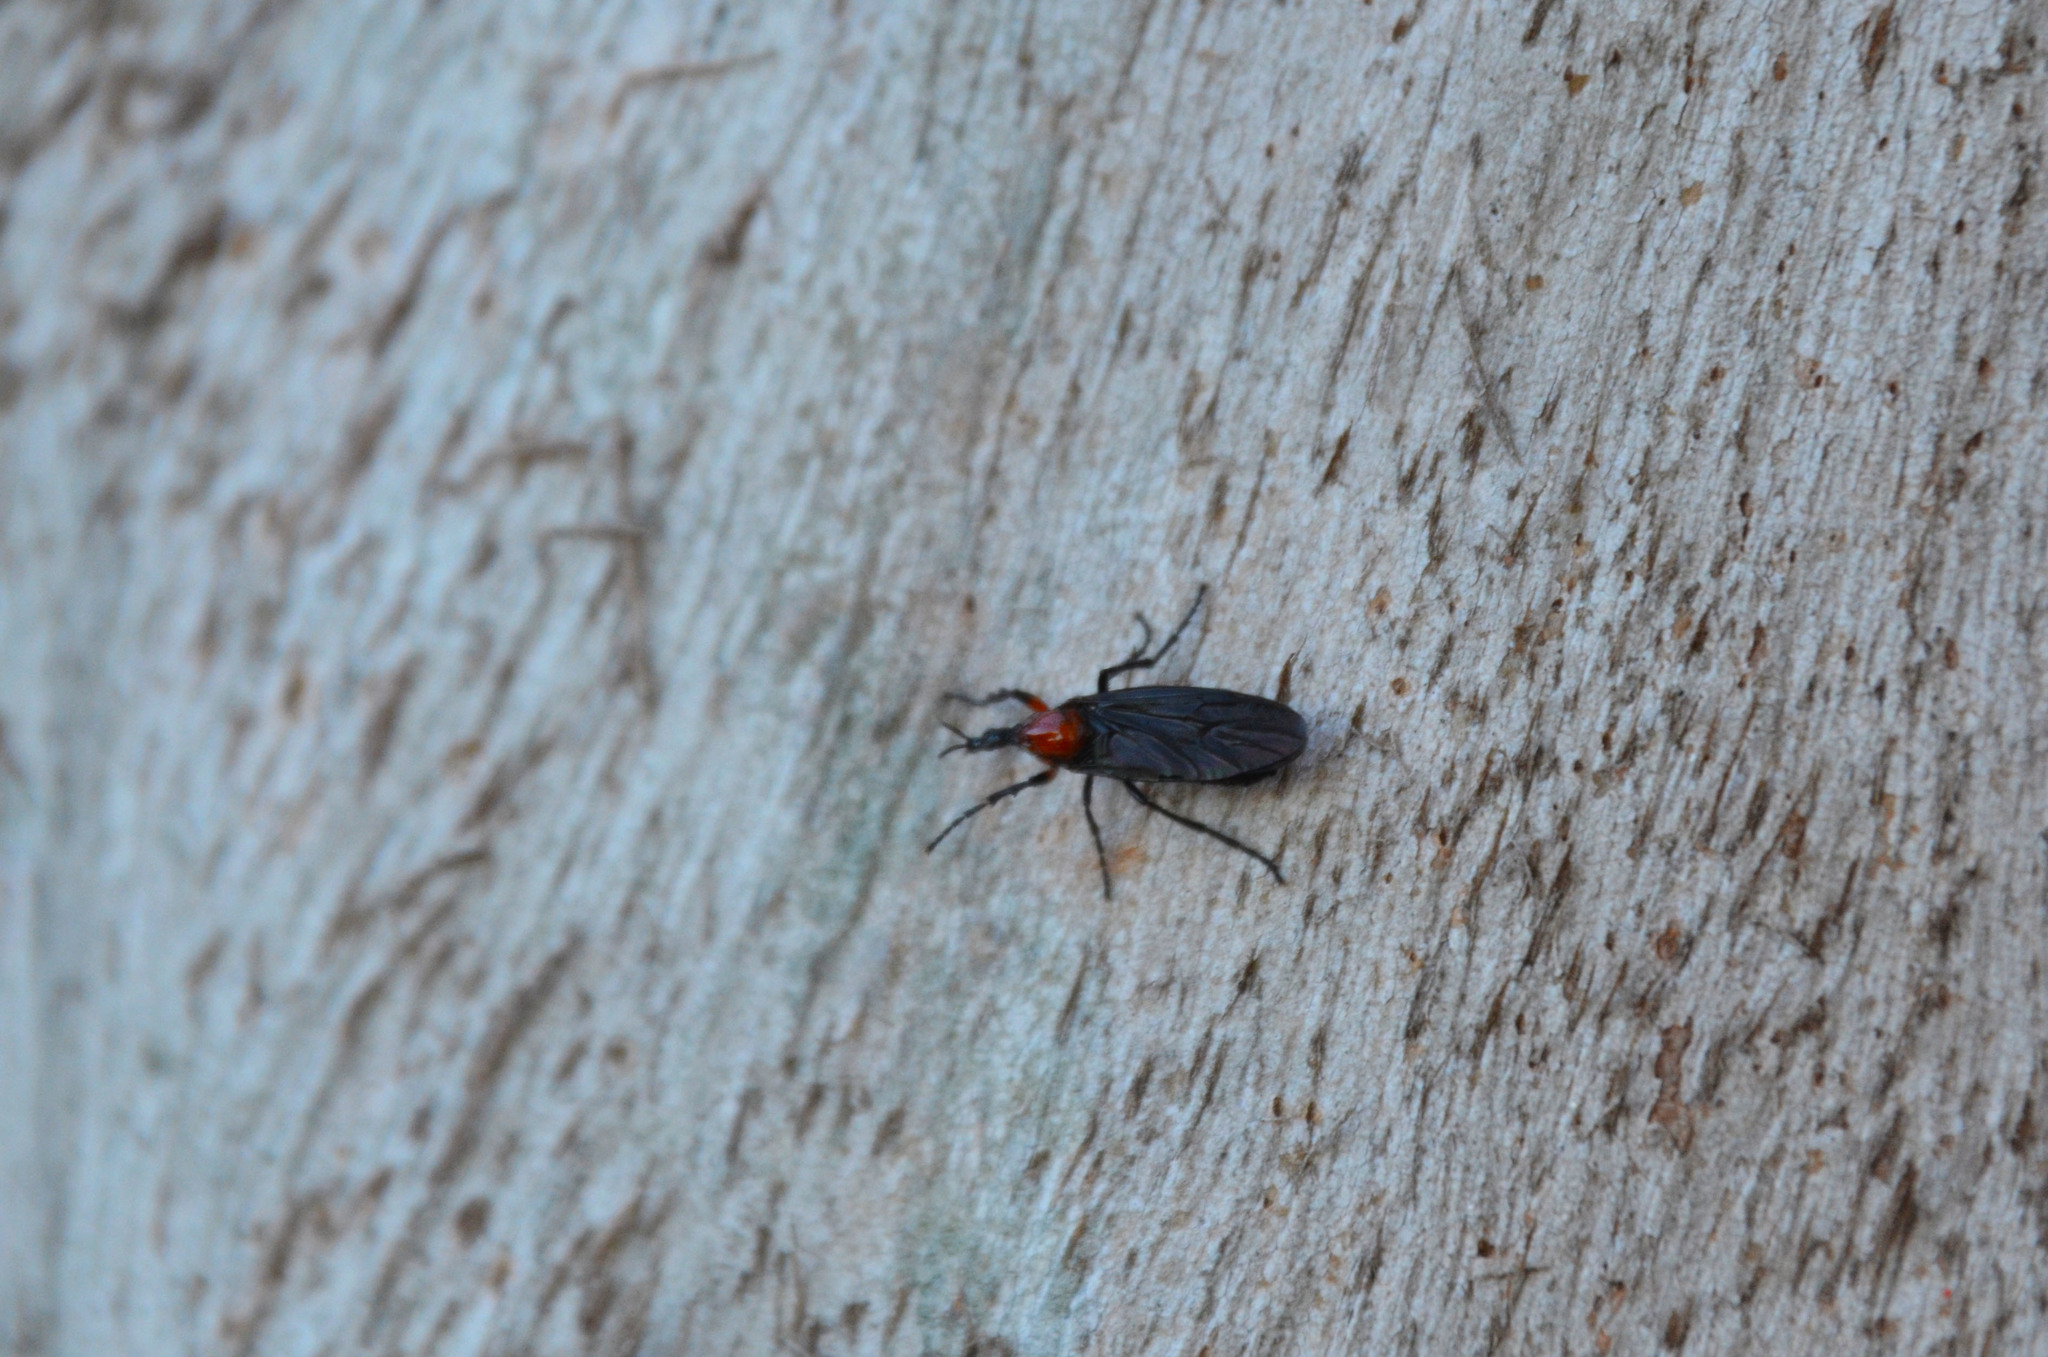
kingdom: Animalia
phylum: Arthropoda
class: Insecta
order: Diptera
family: Bibionidae
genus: Dilophus
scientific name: Dilophus pectoralis
